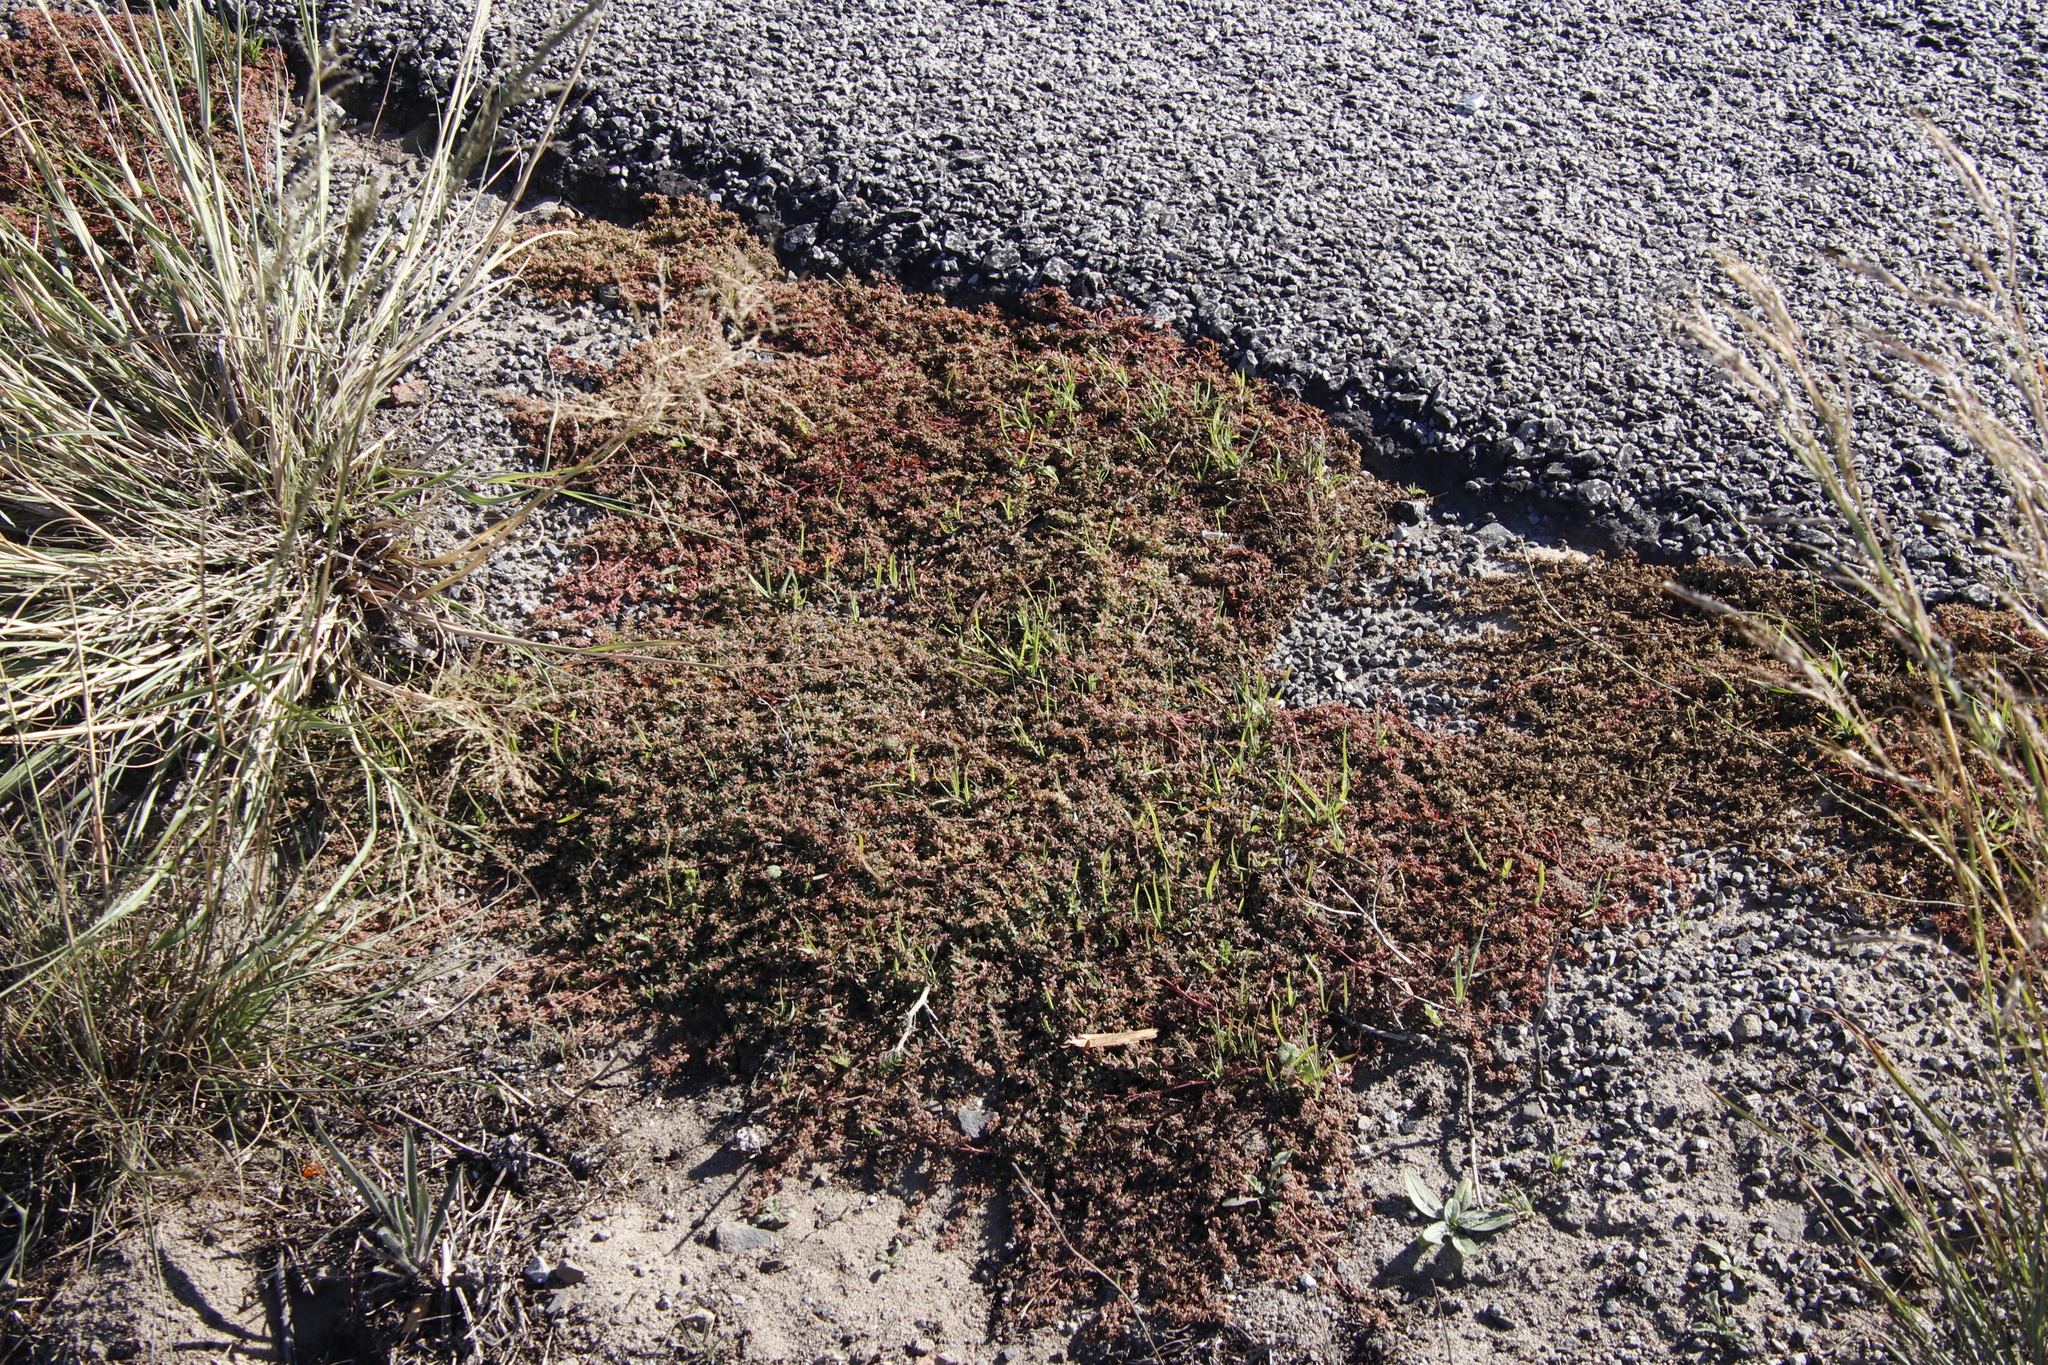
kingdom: Plantae
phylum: Tracheophyta
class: Magnoliopsida
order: Malpighiales
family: Euphorbiaceae
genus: Euphorbia
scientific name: Euphorbia maculata
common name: Spotted spurge
